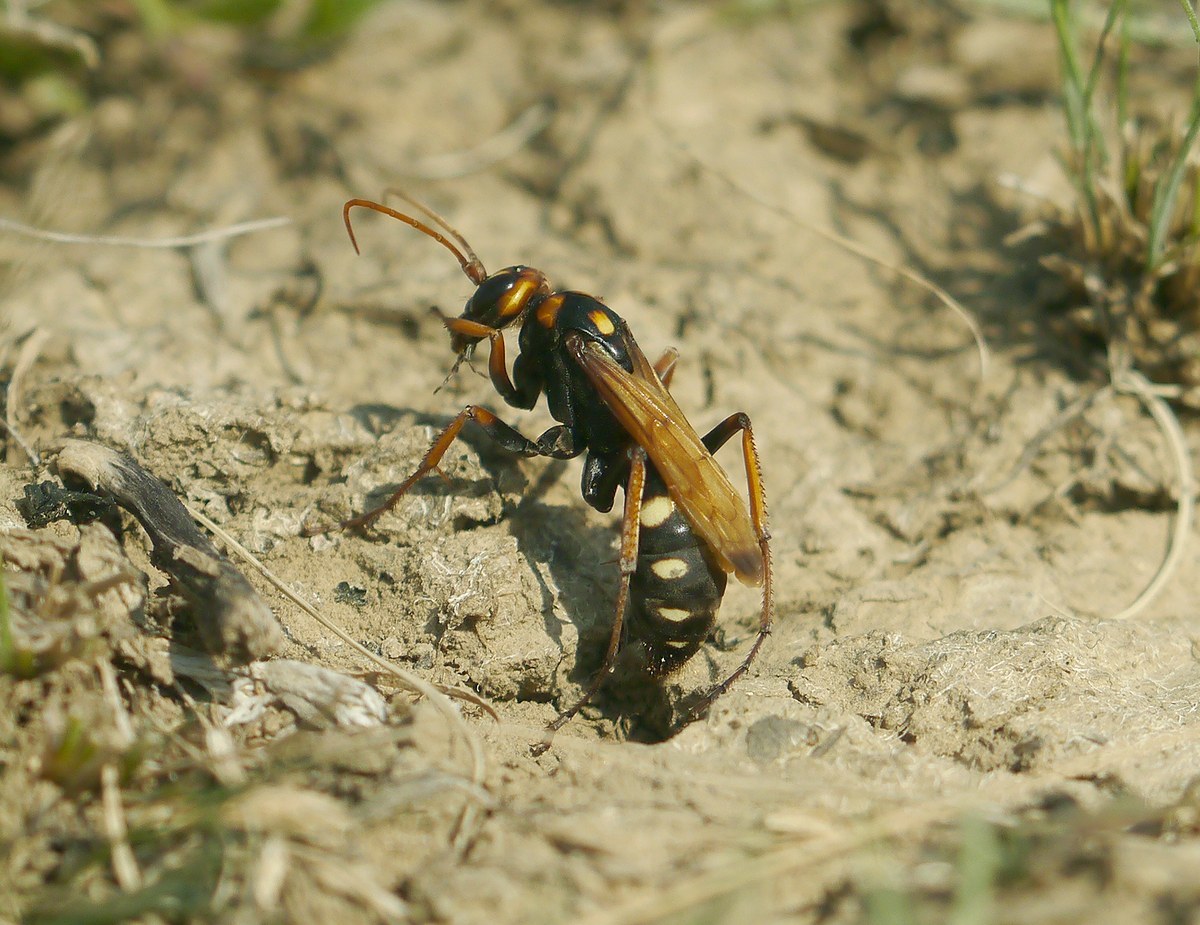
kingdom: Animalia
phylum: Arthropoda
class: Insecta
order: Hymenoptera
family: Pompilidae
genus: Cryptocheilus
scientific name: Cryptocheilus octomaculatus
